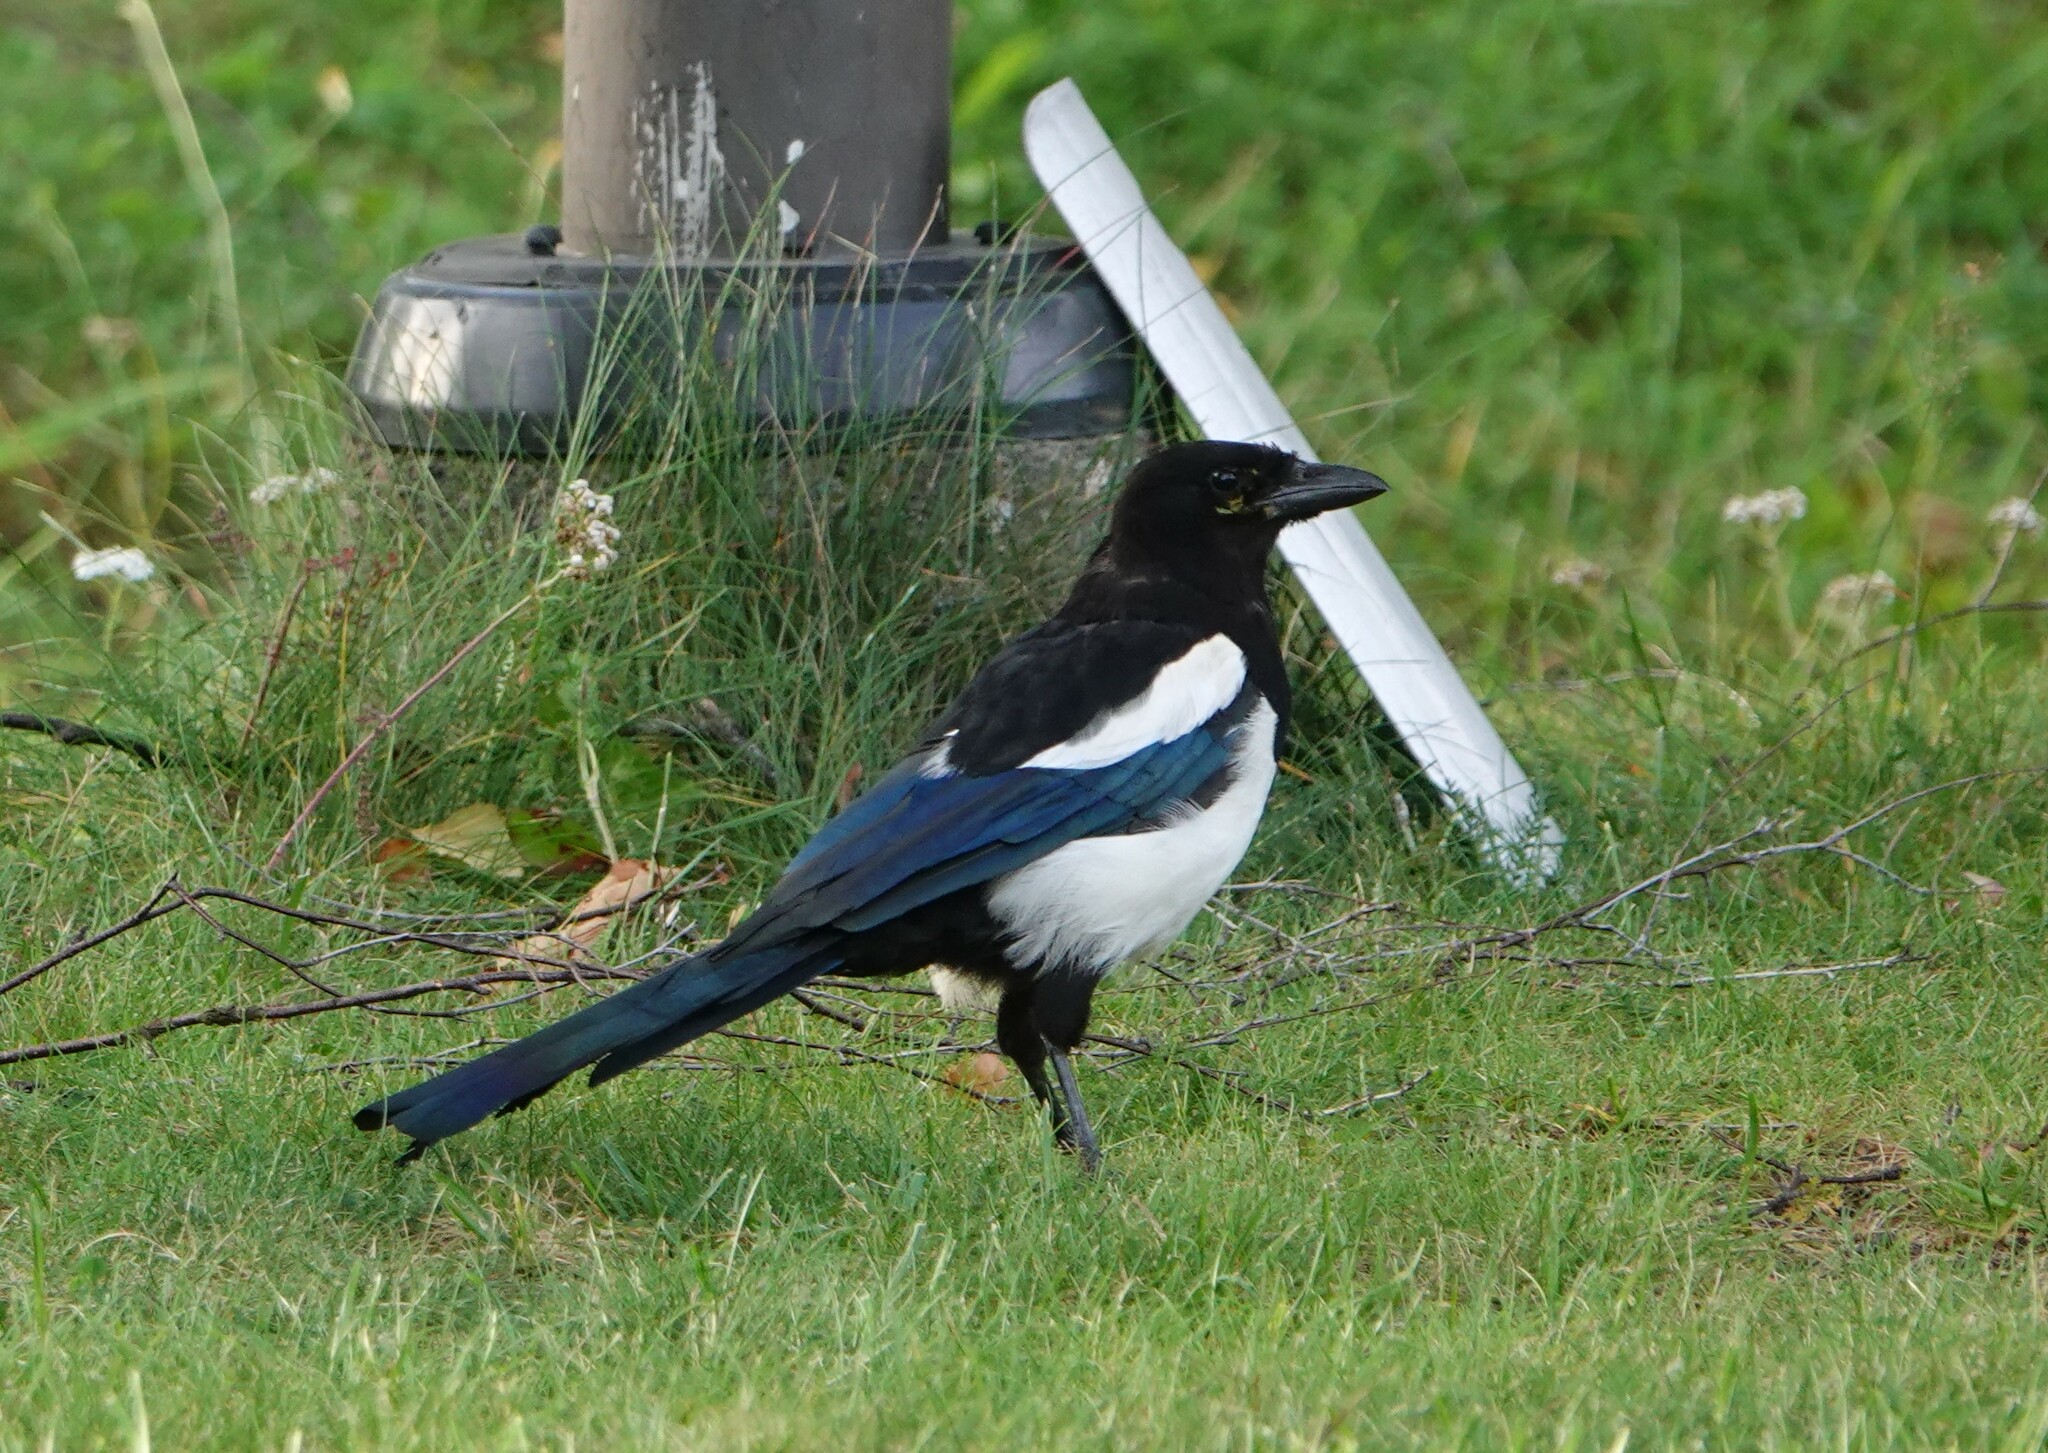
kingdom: Animalia
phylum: Chordata
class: Aves
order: Passeriformes
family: Corvidae
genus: Pica
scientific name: Pica pica
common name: Eurasian magpie
